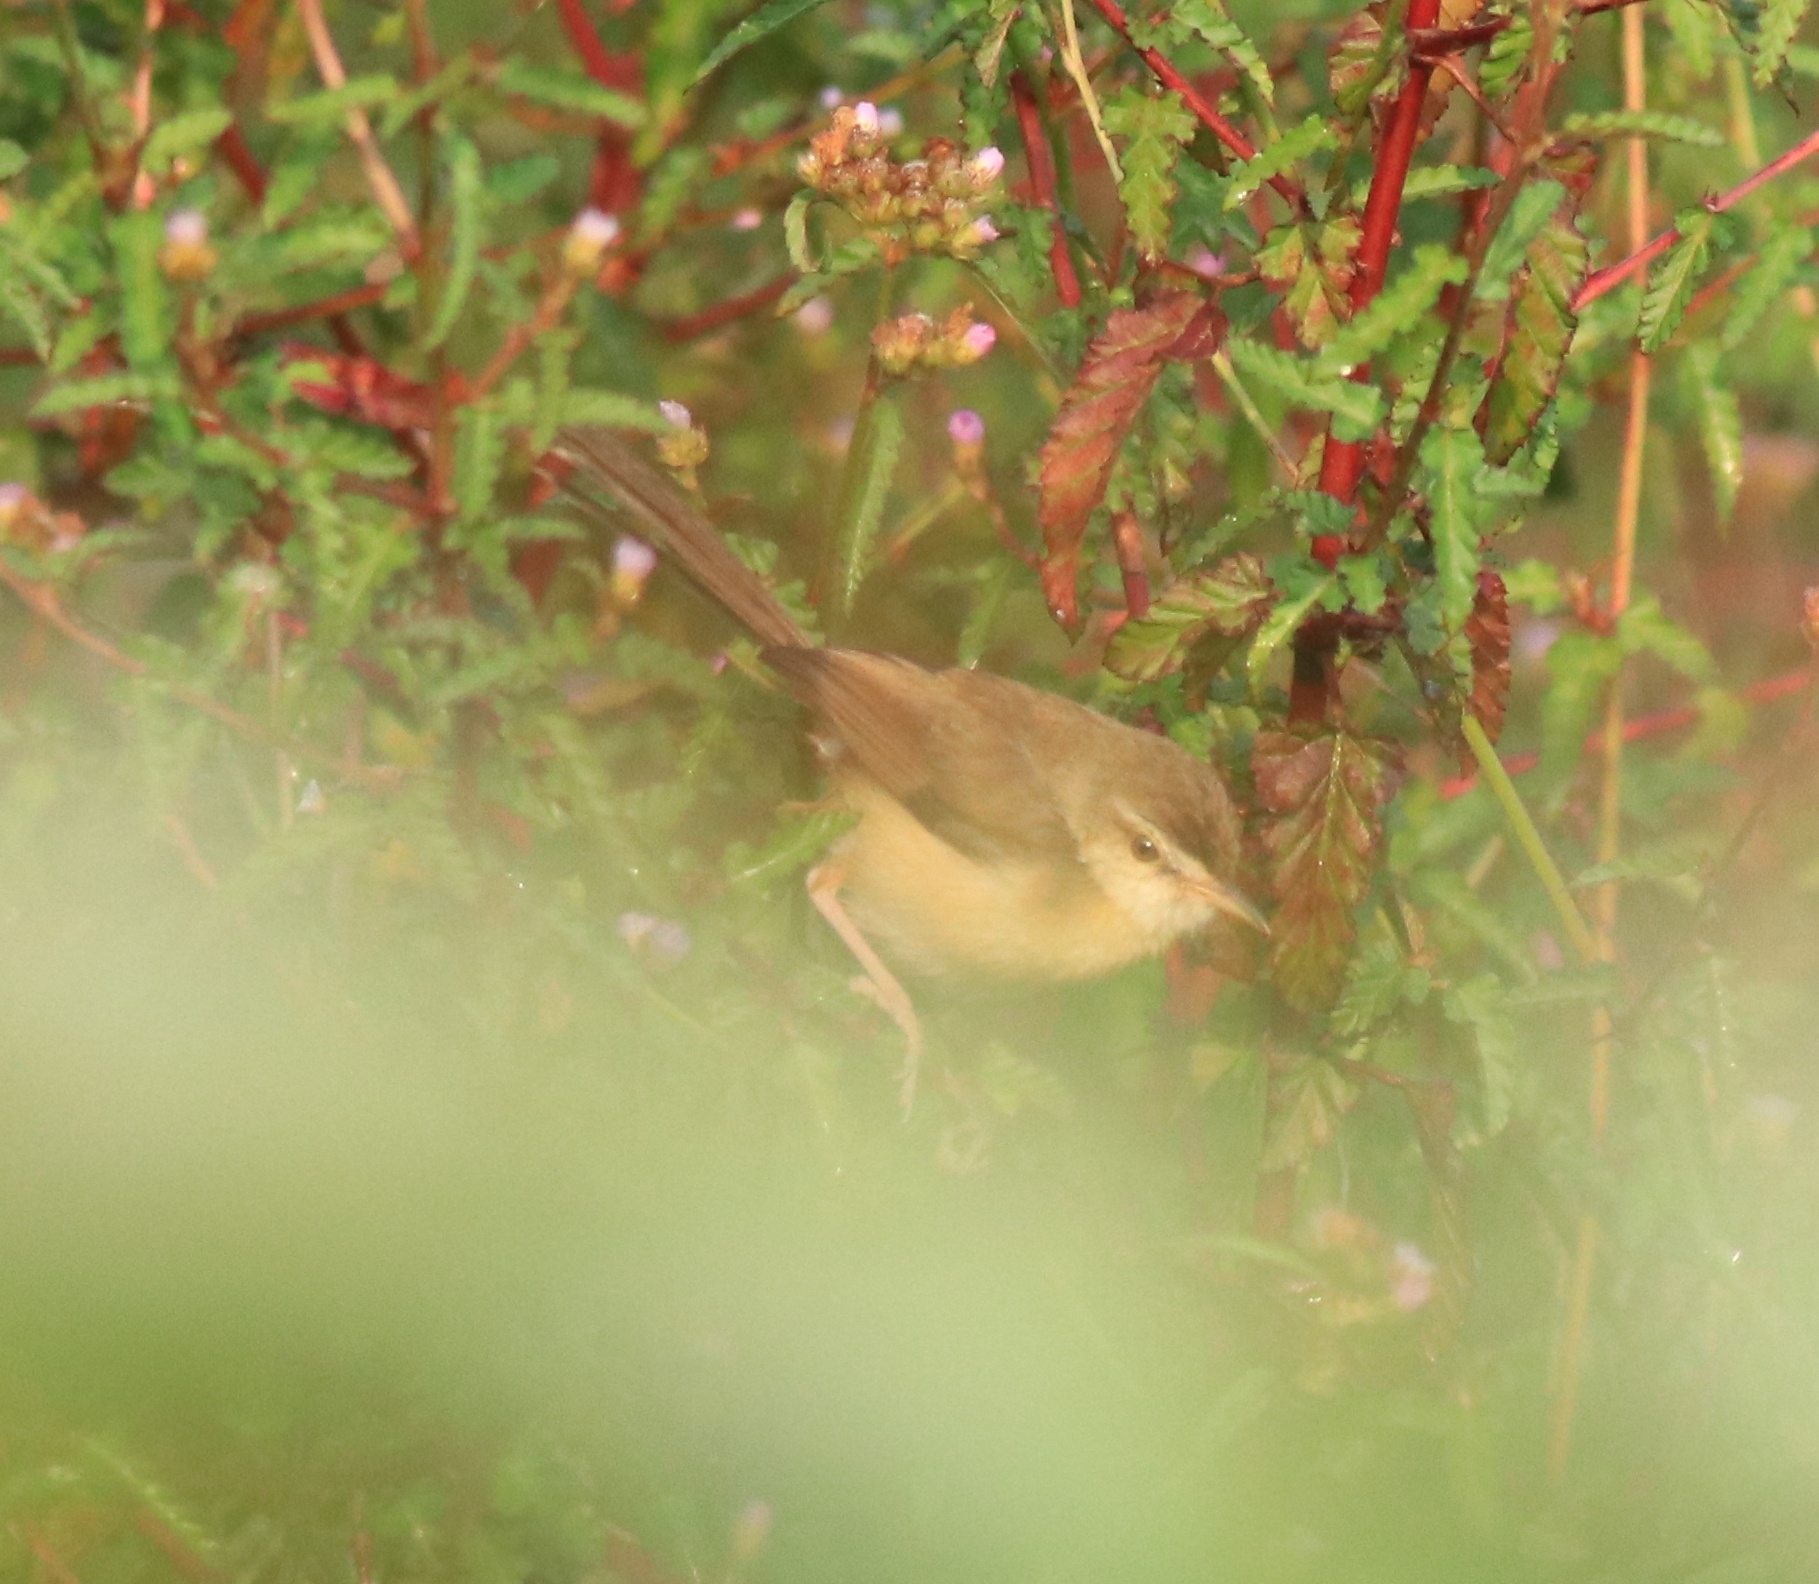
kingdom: Animalia
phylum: Chordata
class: Aves
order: Passeriformes
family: Cisticolidae
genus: Prinia
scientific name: Prinia inornata
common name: Plain prinia
